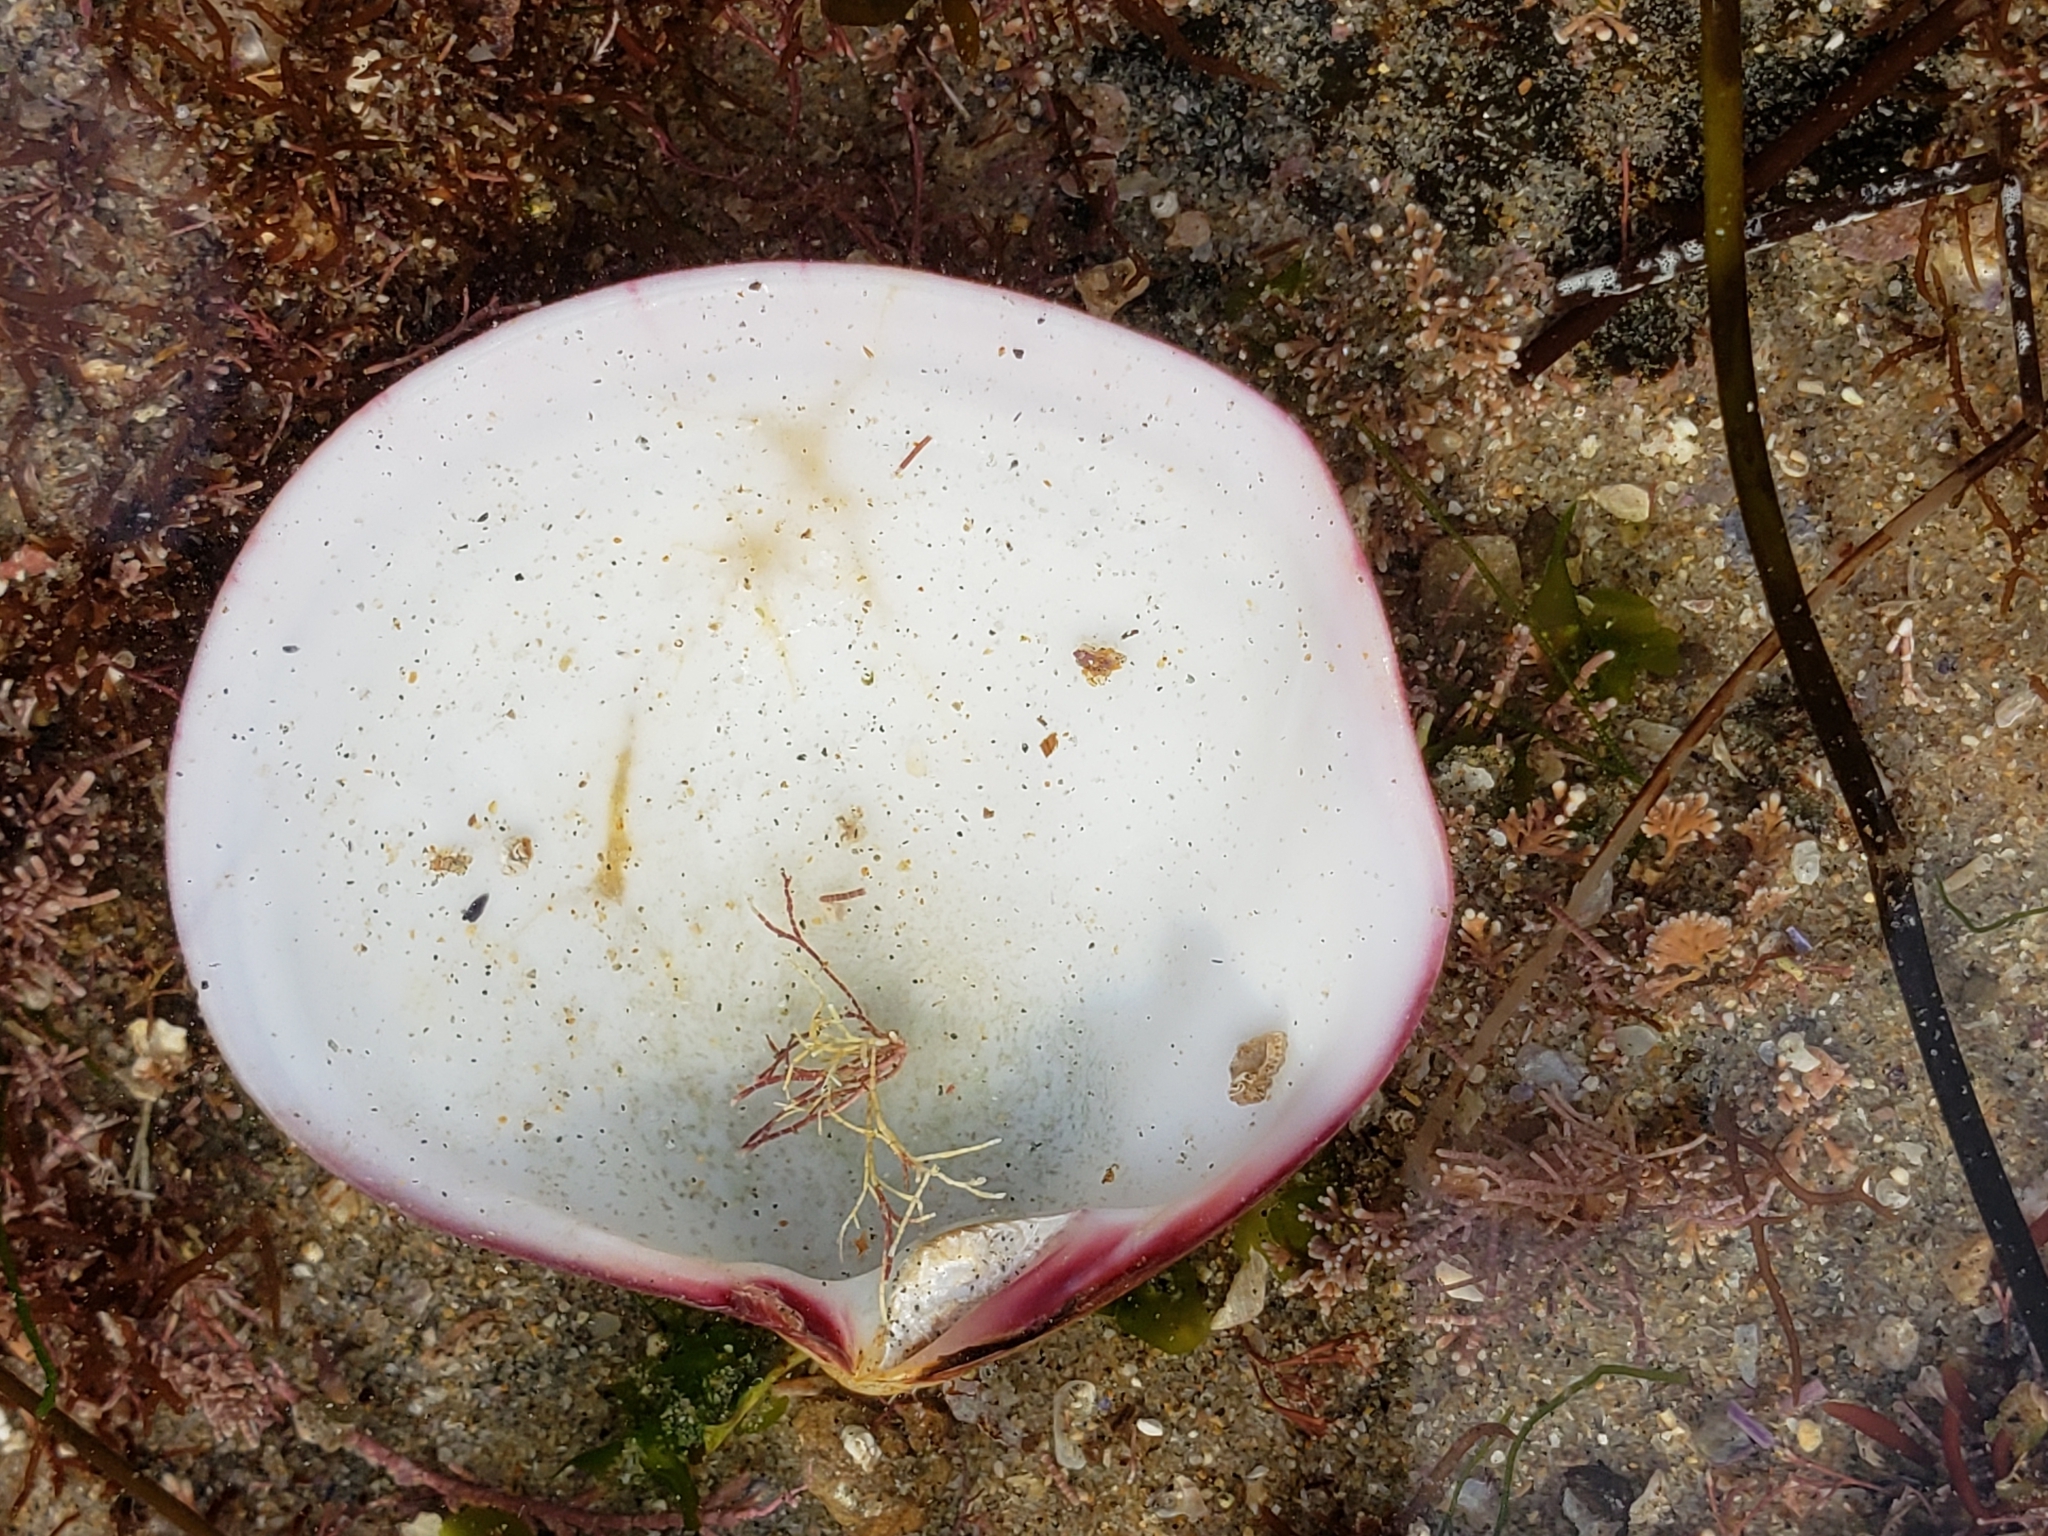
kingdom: Animalia
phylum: Mollusca
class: Bivalvia
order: Cardiida
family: Semelidae
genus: Semele
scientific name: Semele decisa
